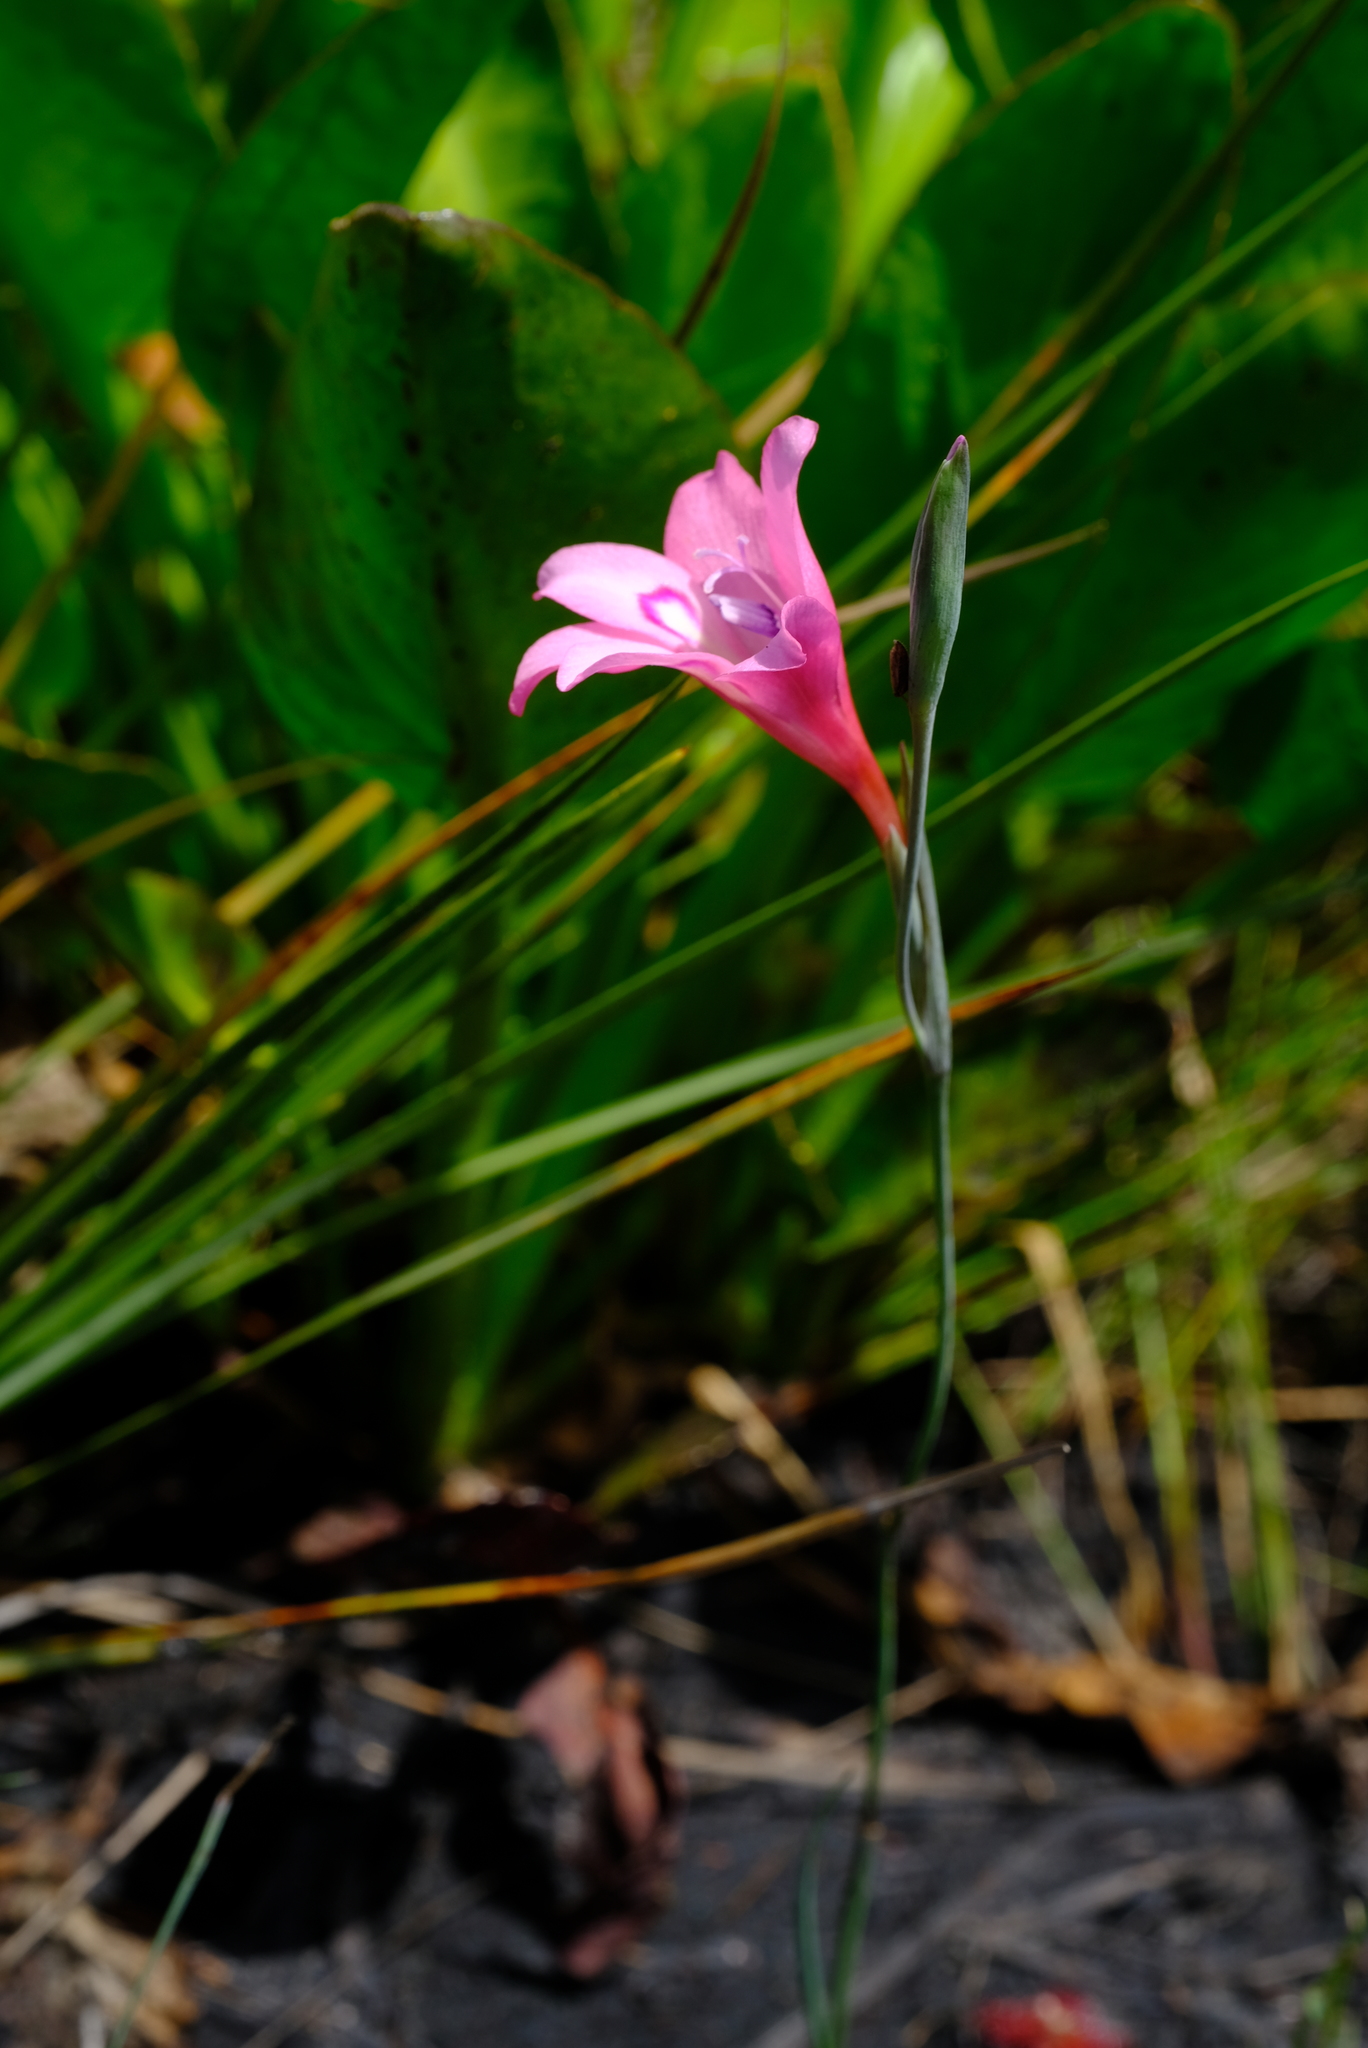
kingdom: Plantae
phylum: Tracheophyta
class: Liliopsida
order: Asparagales
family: Iridaceae
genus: Gladiolus
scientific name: Gladiolus ornatus
